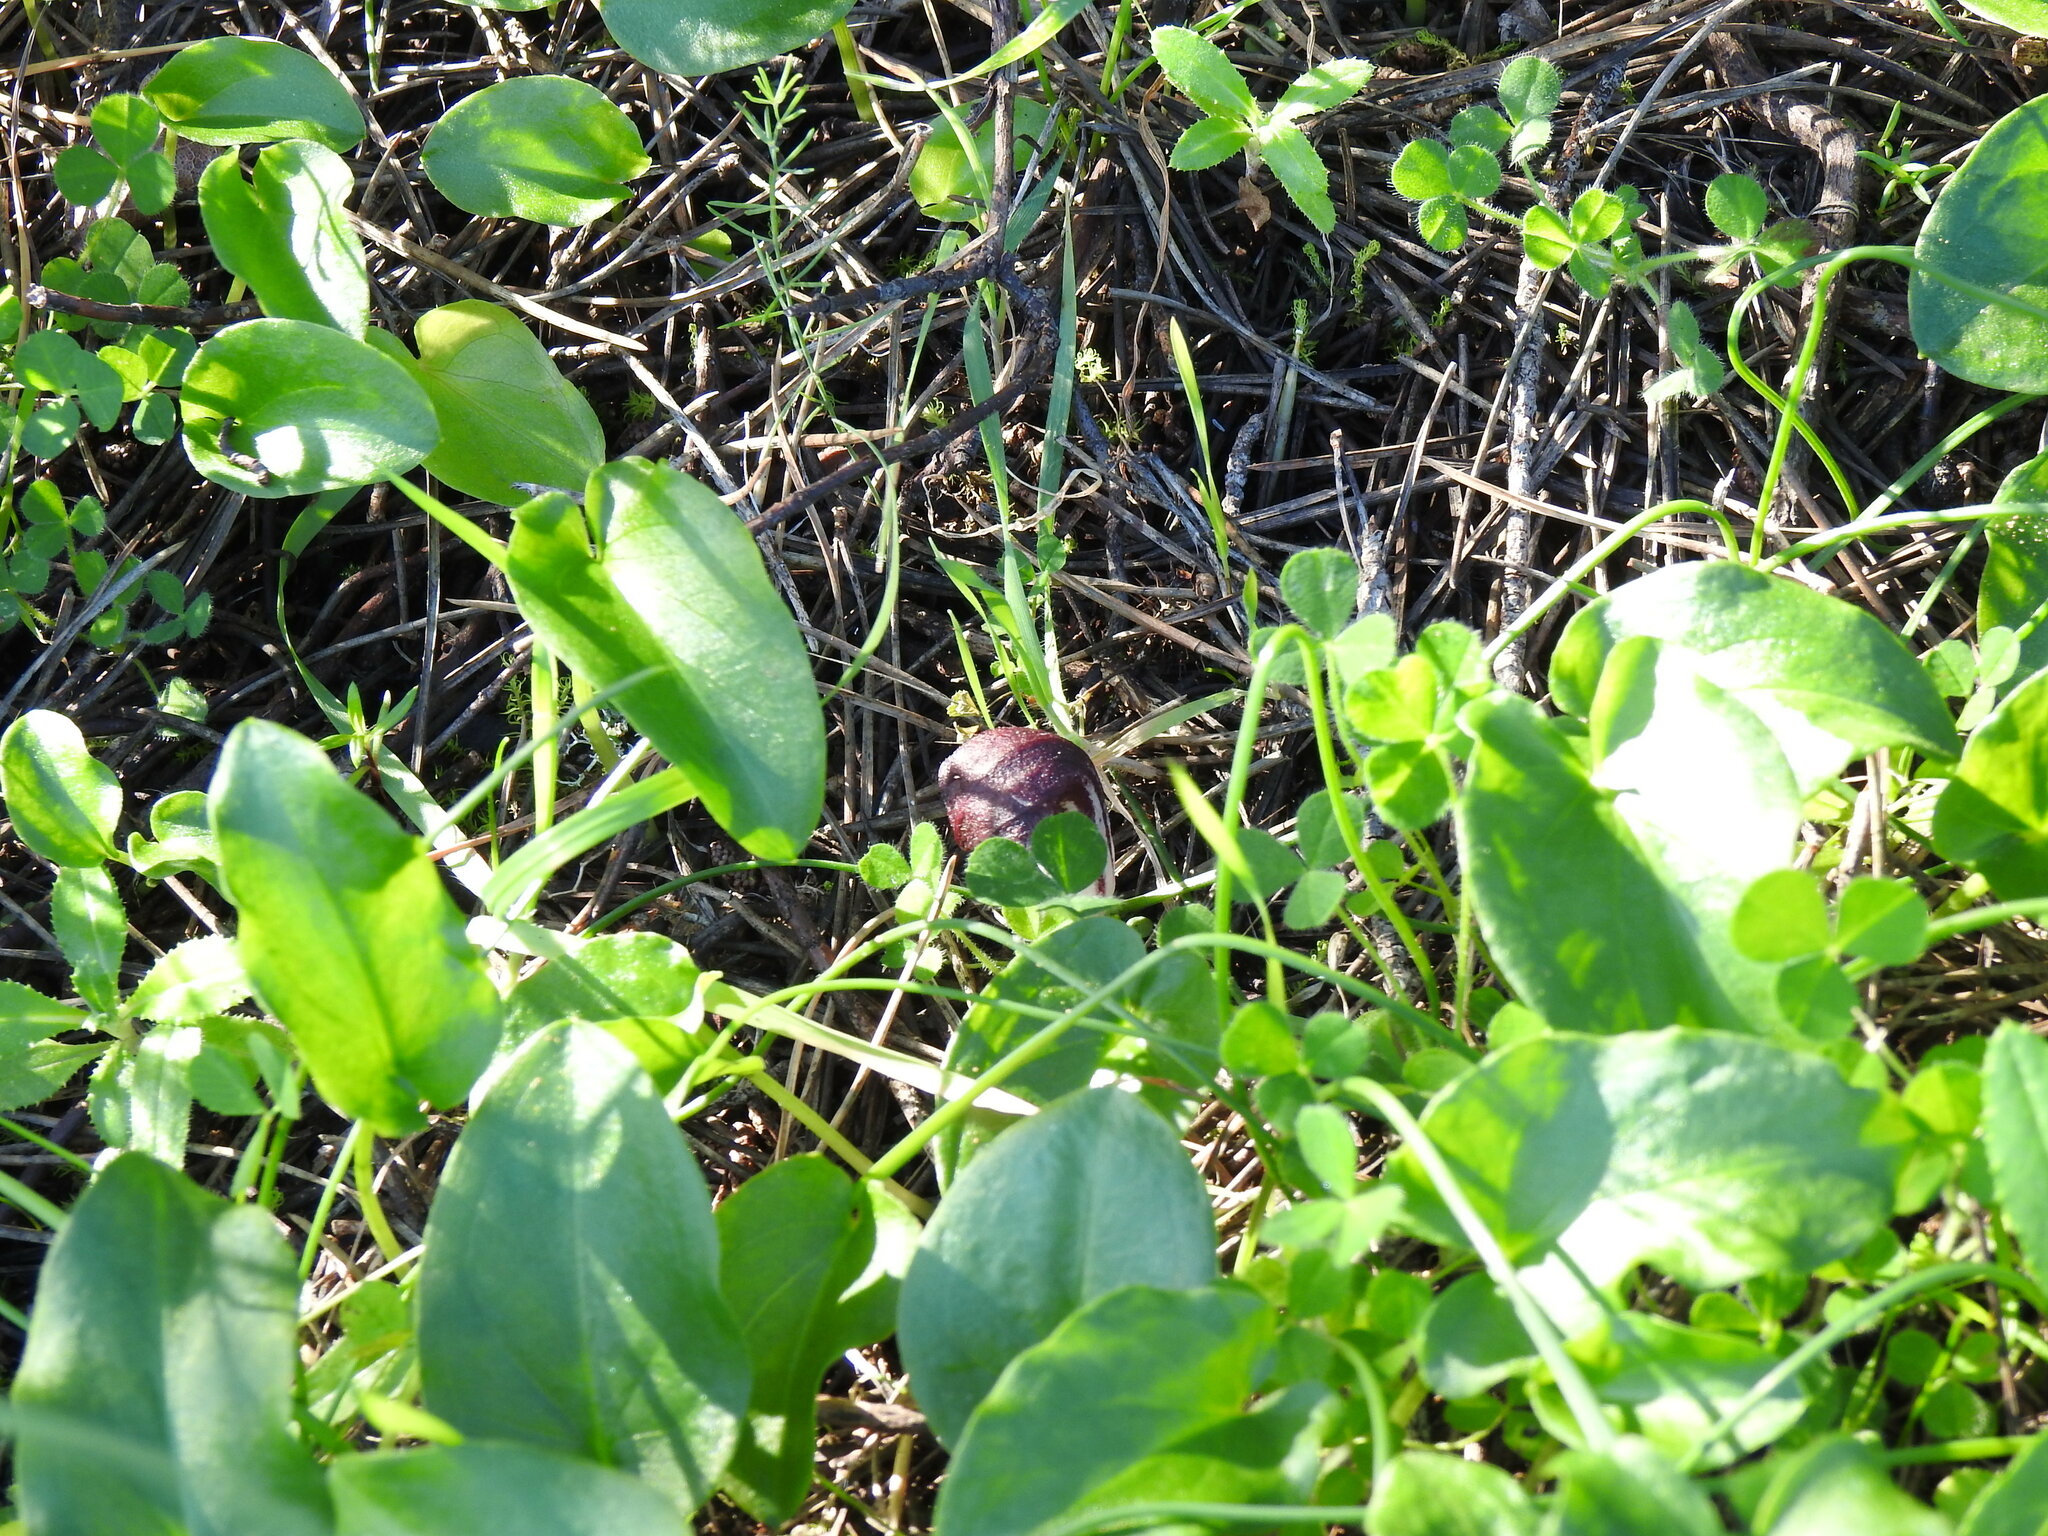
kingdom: Plantae
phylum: Tracheophyta
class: Liliopsida
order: Alismatales
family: Araceae
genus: Arisarum
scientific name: Arisarum simorrhinum
